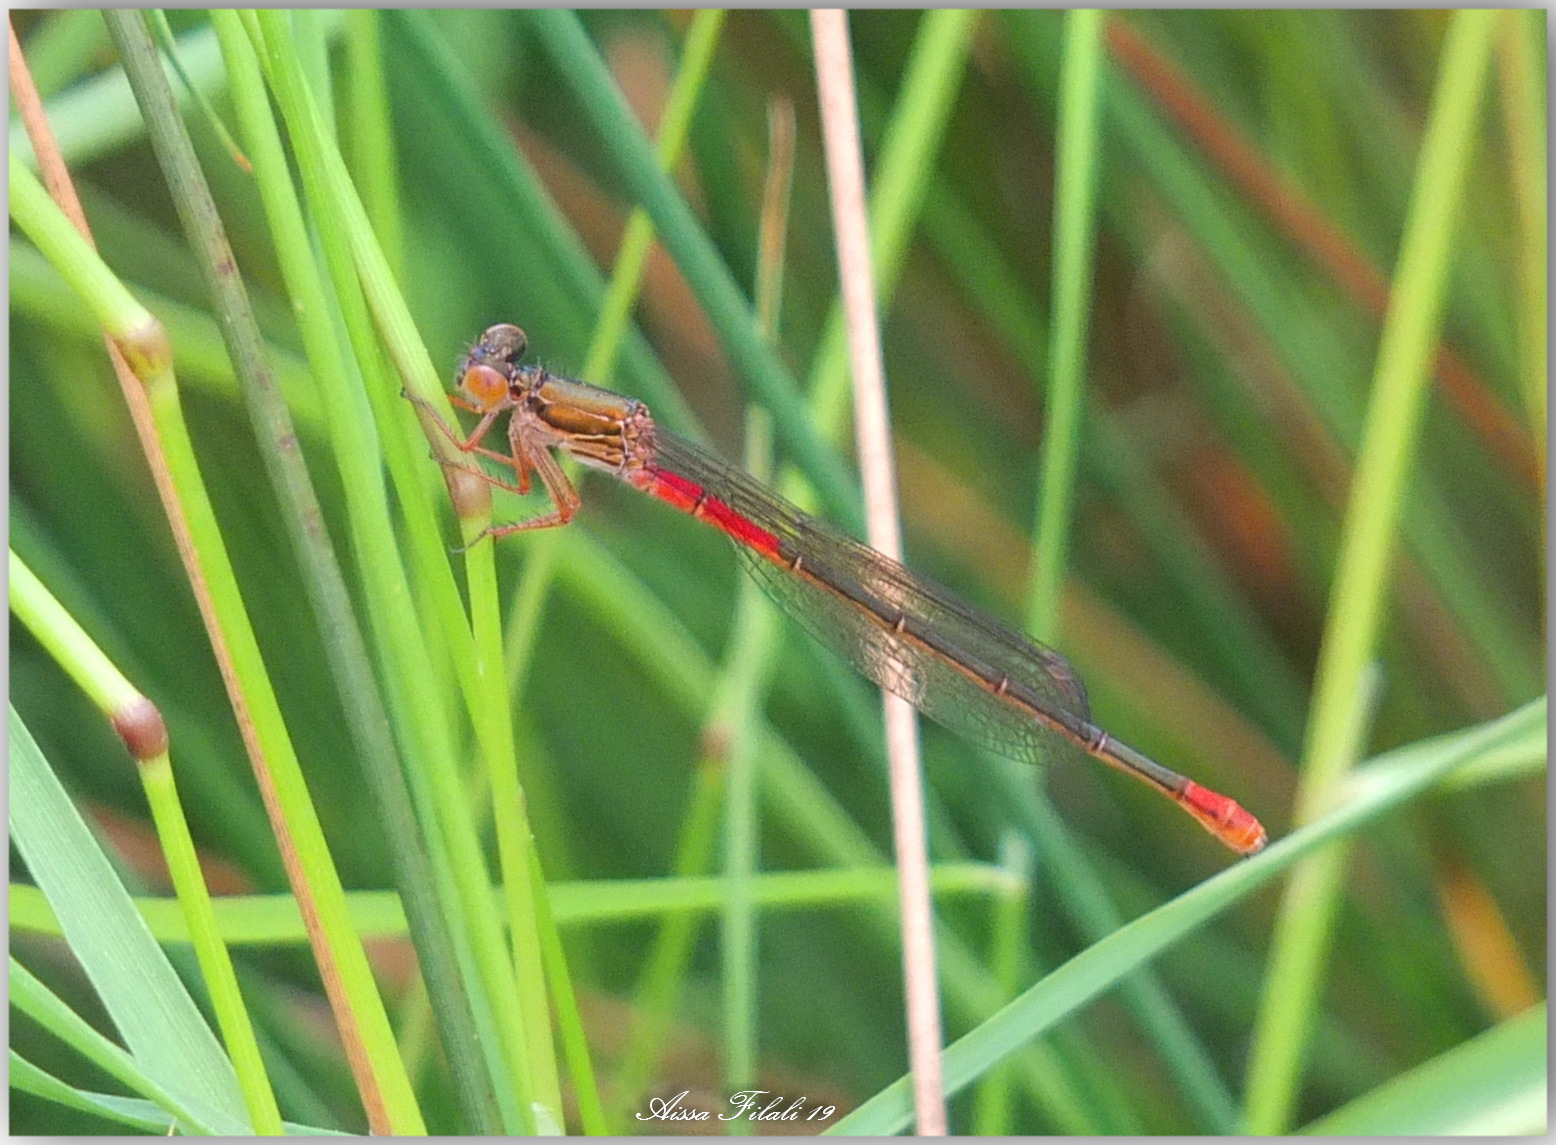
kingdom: Animalia
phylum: Arthropoda
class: Insecta
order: Odonata
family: Coenagrionidae
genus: Ceriagrion
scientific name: Ceriagrion tenellum
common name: Small red damselfly
